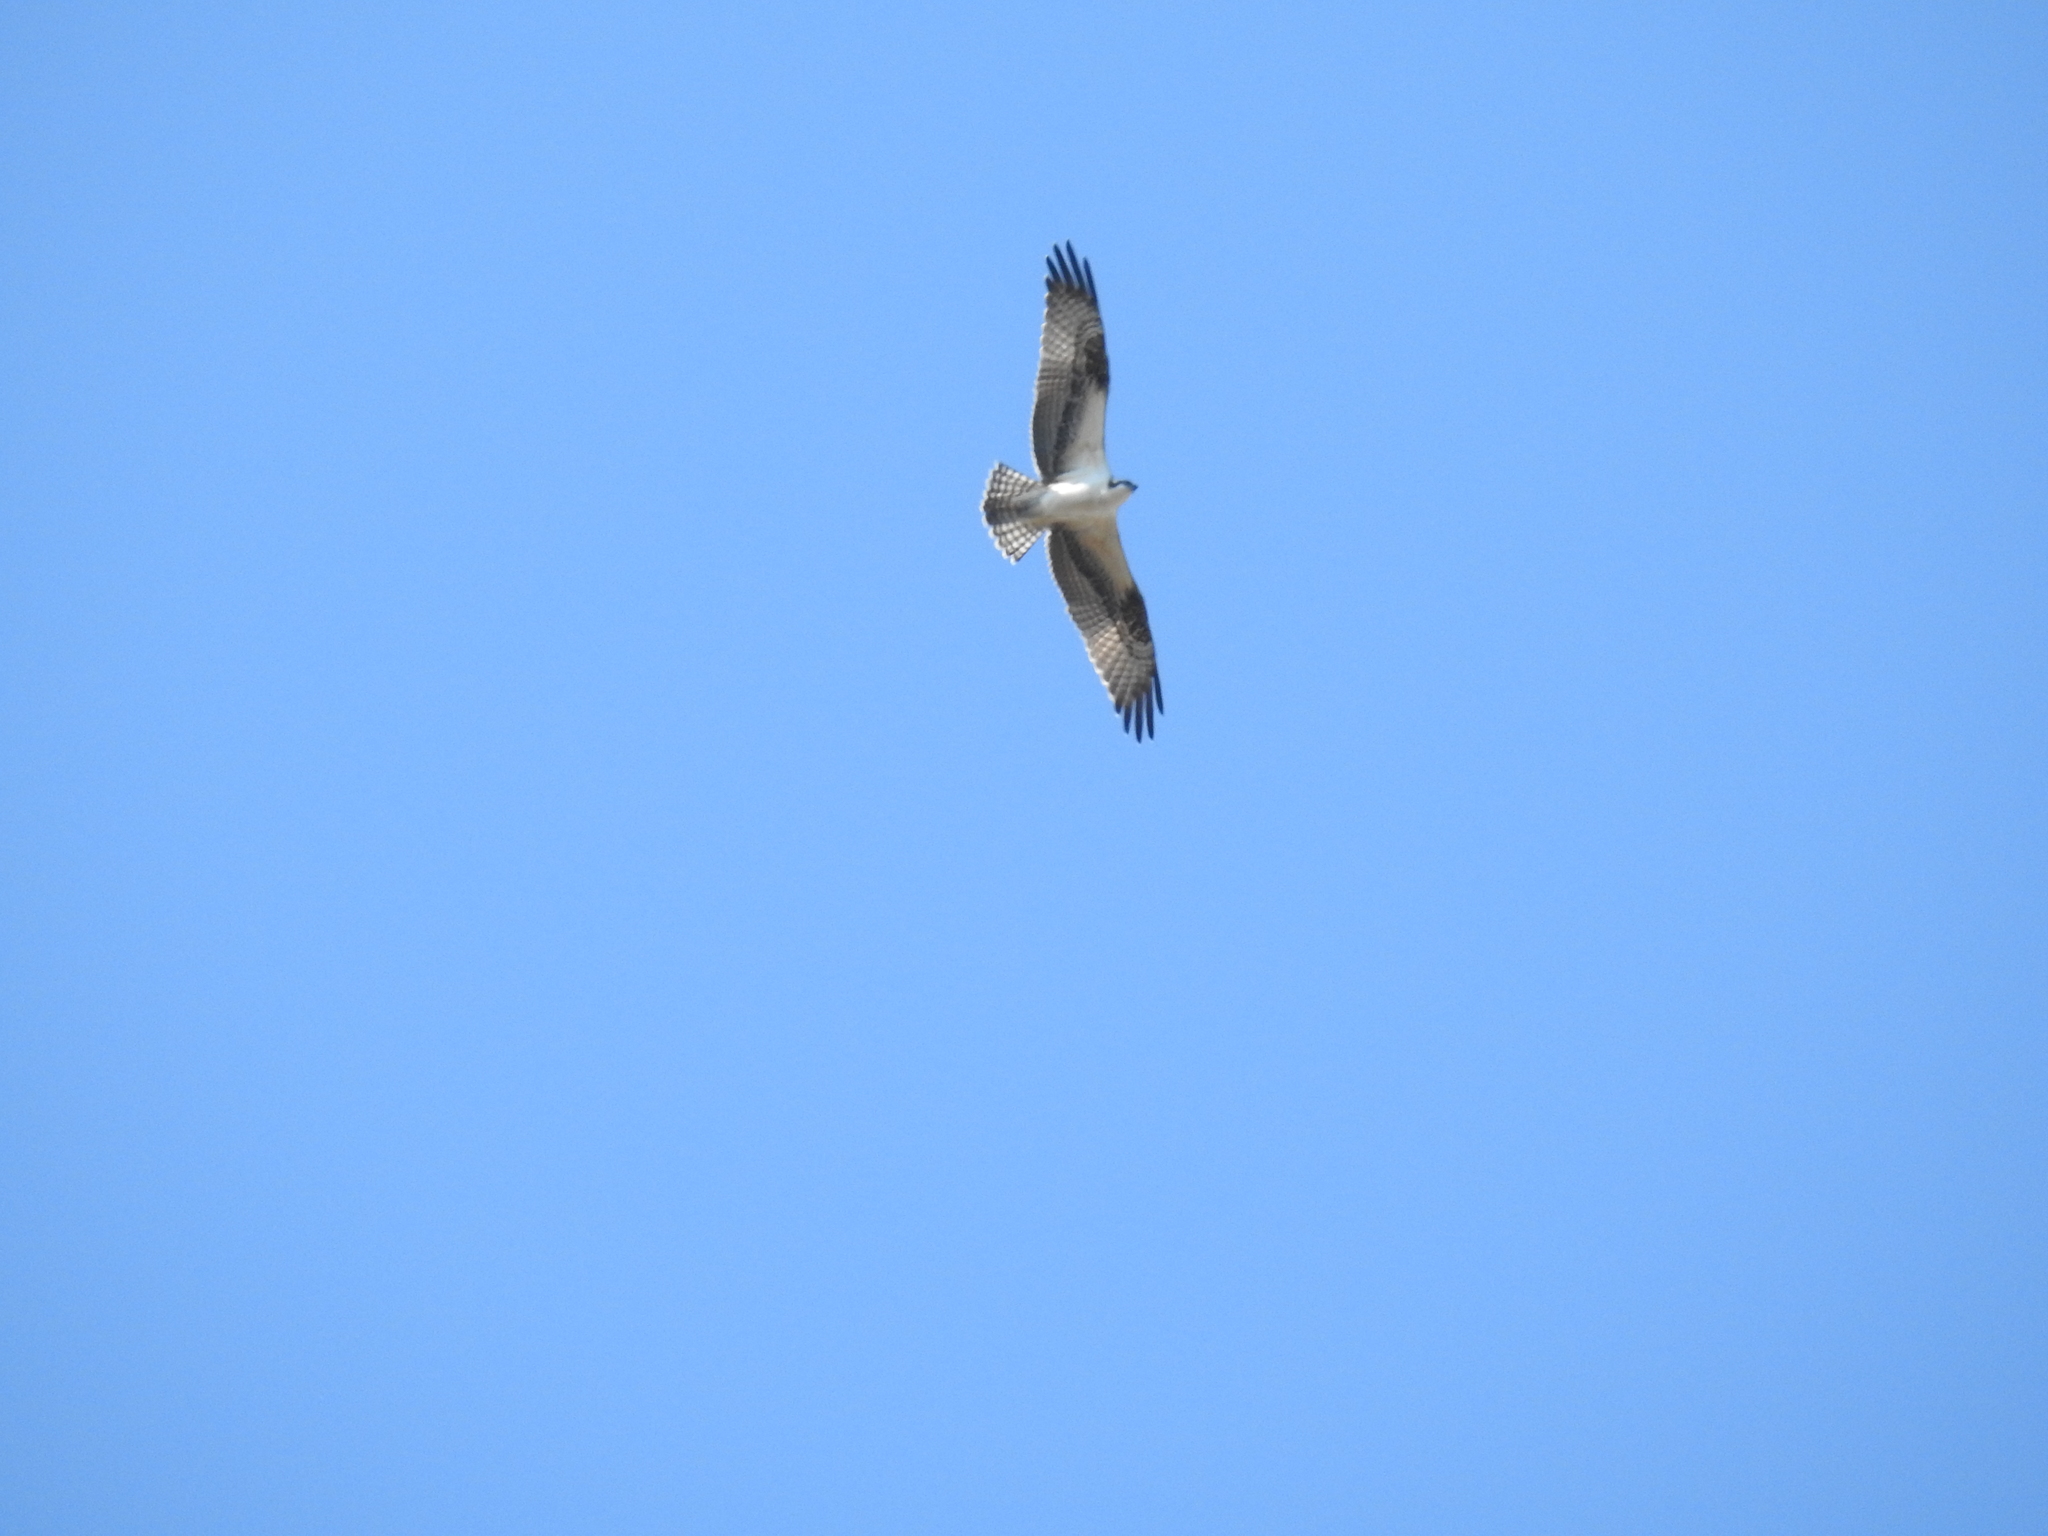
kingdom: Animalia
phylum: Chordata
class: Aves
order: Accipitriformes
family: Pandionidae
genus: Pandion
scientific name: Pandion haliaetus
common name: Osprey
